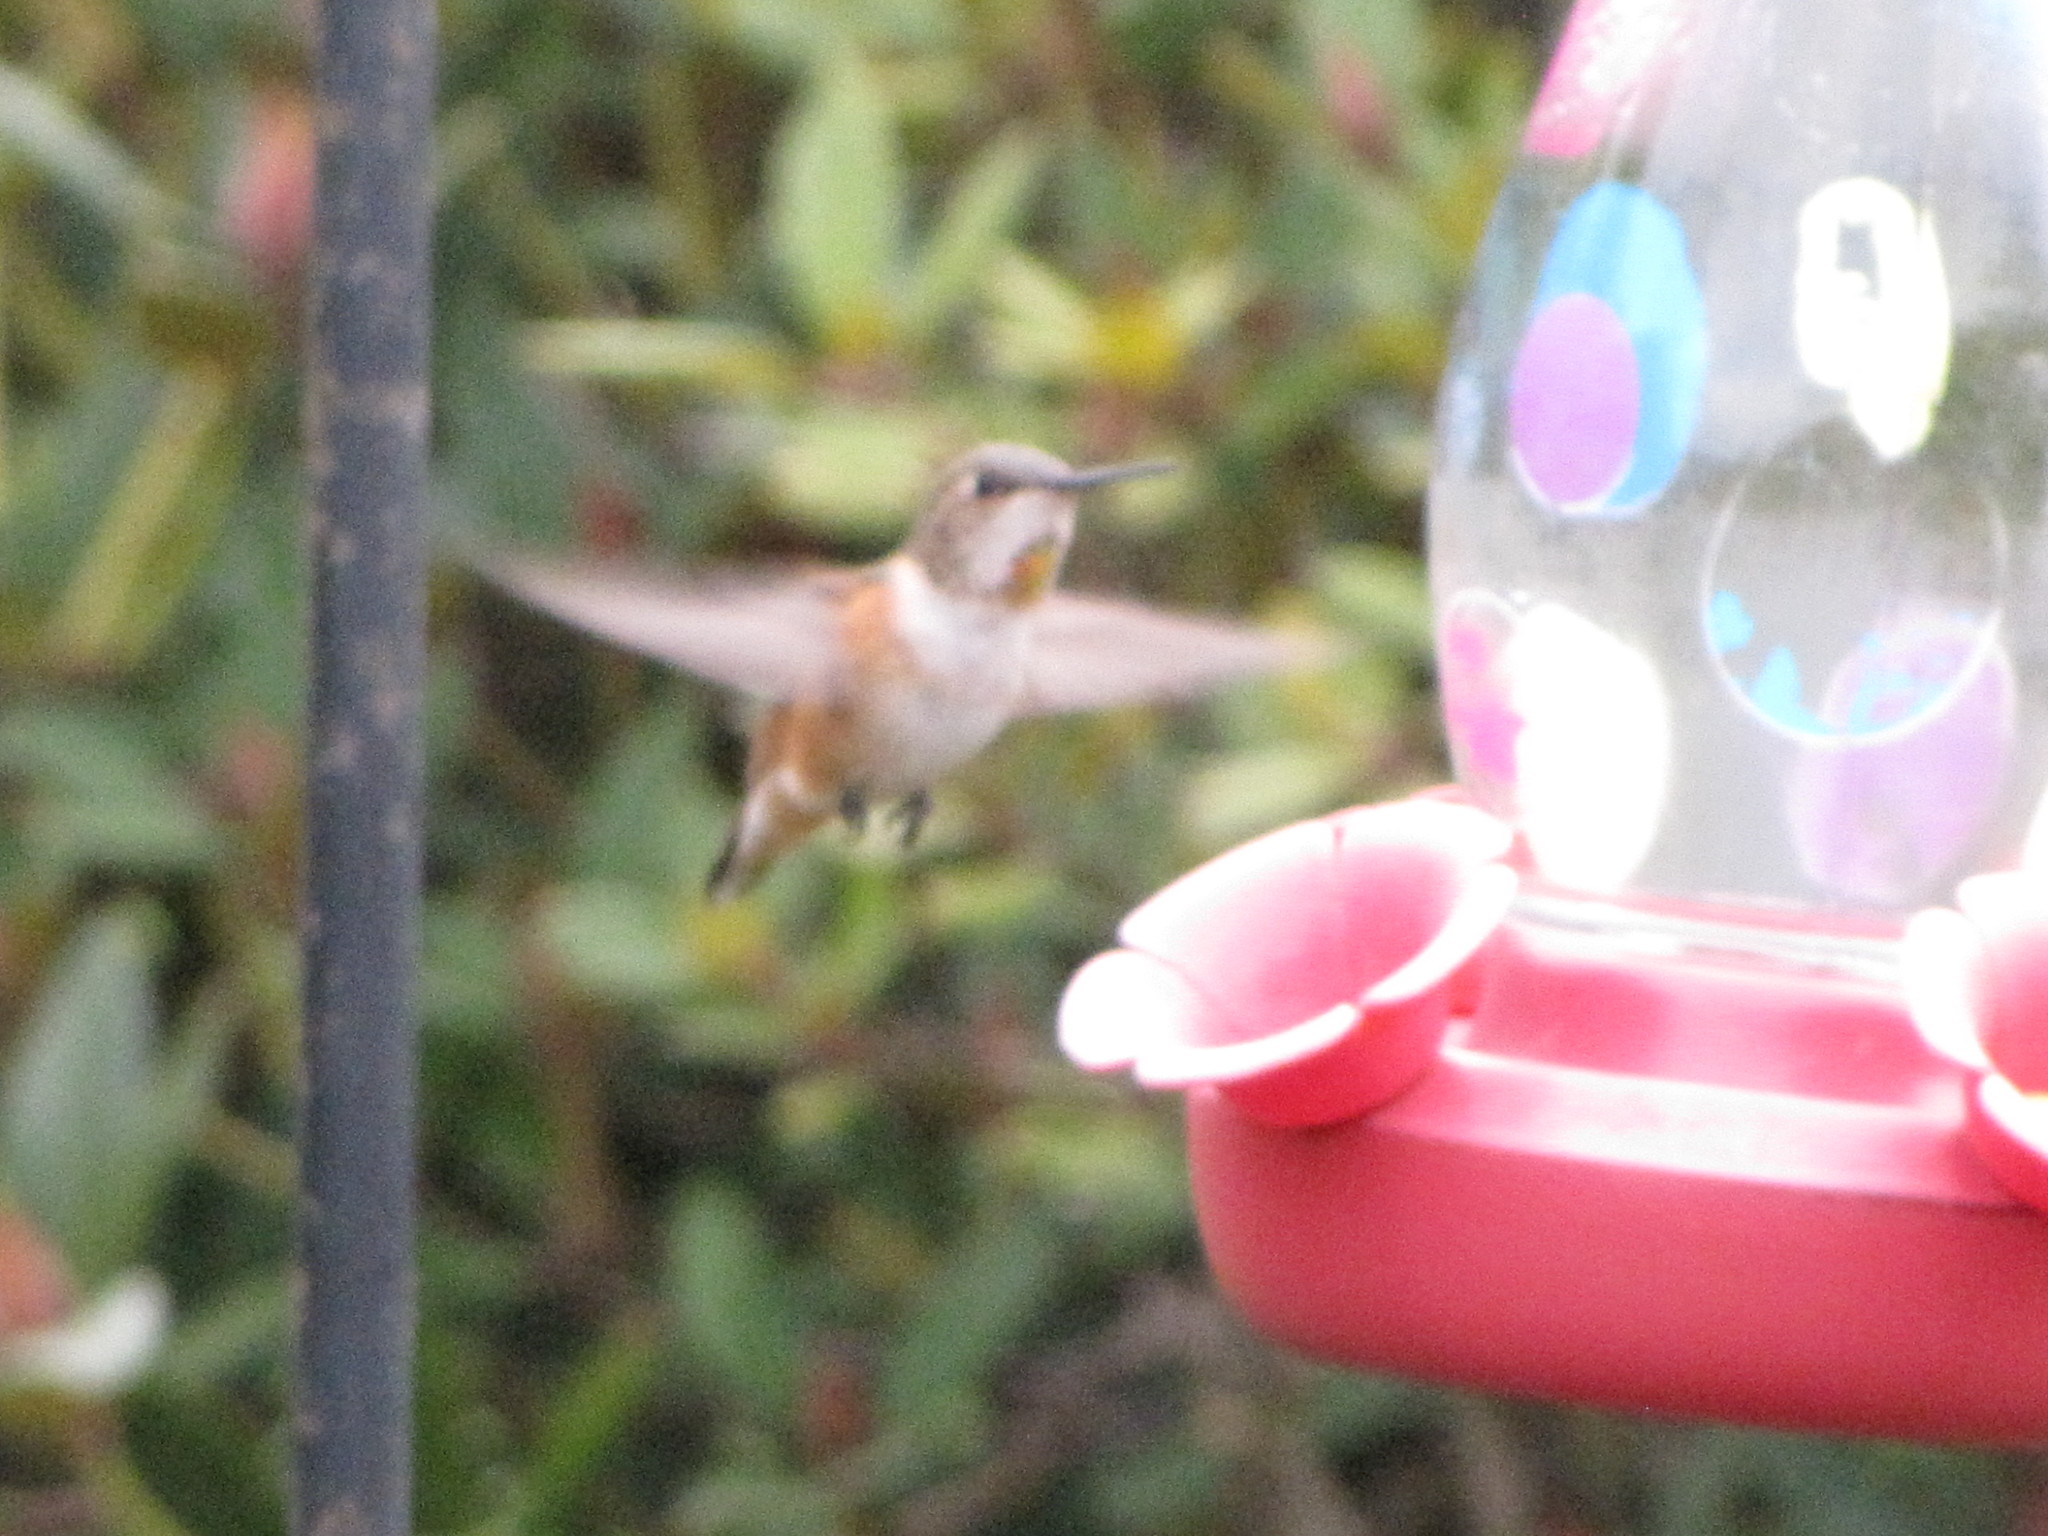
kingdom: Animalia
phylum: Chordata
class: Aves
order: Apodiformes
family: Trochilidae
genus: Selasphorus
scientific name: Selasphorus rufus
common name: Rufous hummingbird
